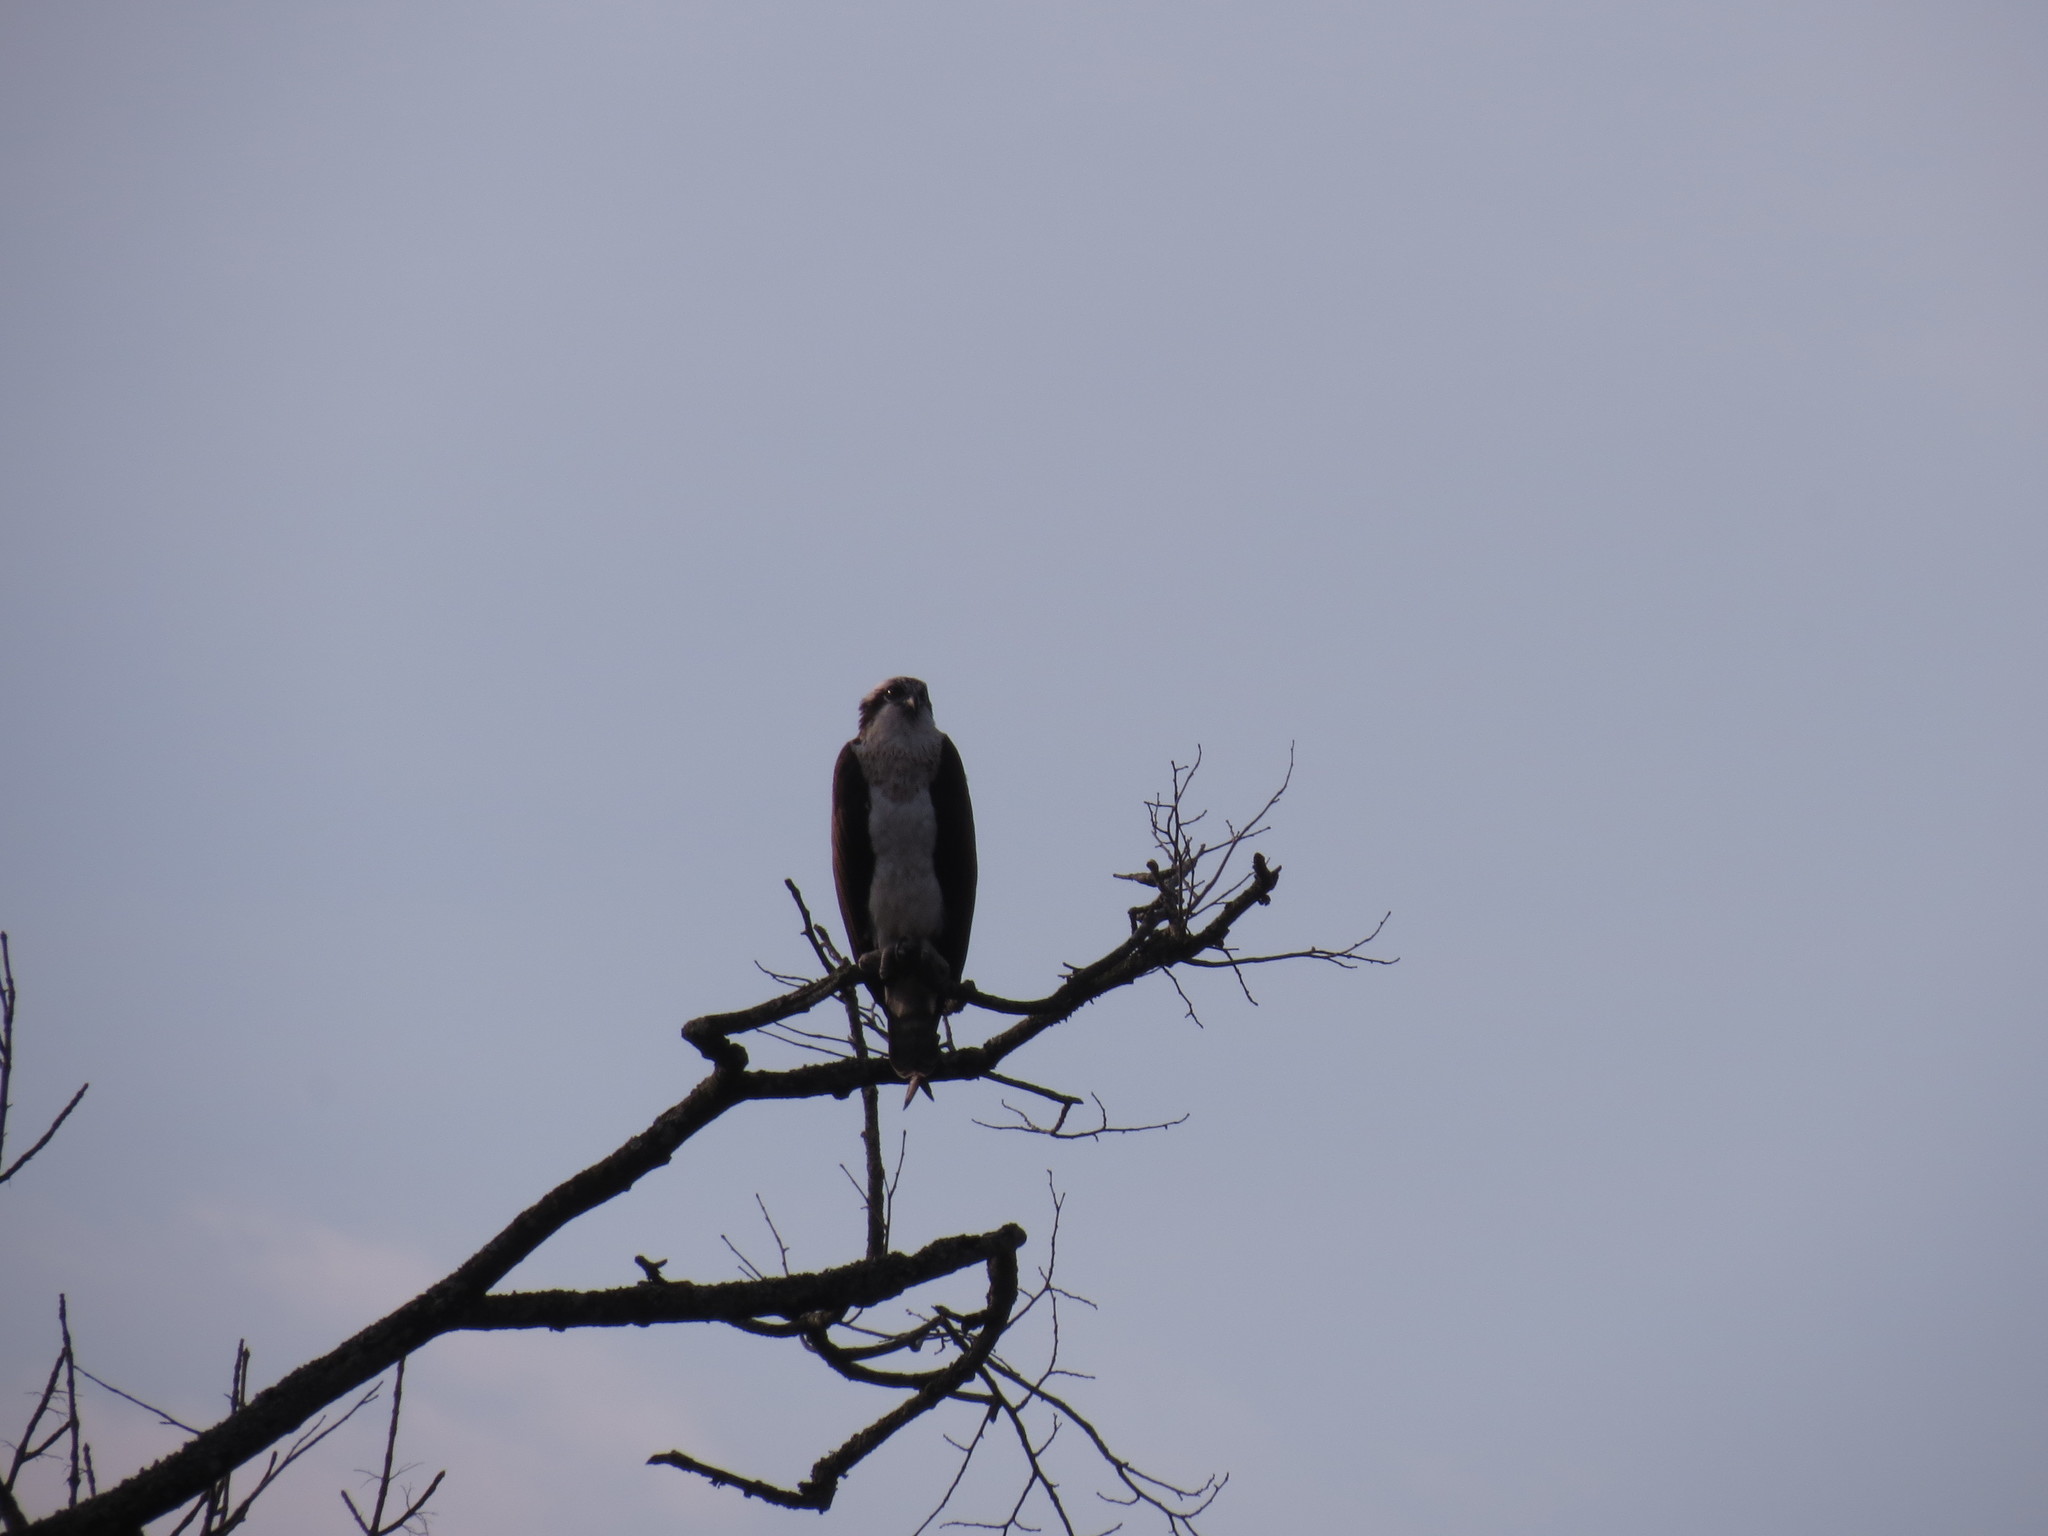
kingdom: Animalia
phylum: Chordata
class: Aves
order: Accipitriformes
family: Pandionidae
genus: Pandion
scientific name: Pandion haliaetus
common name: Osprey
